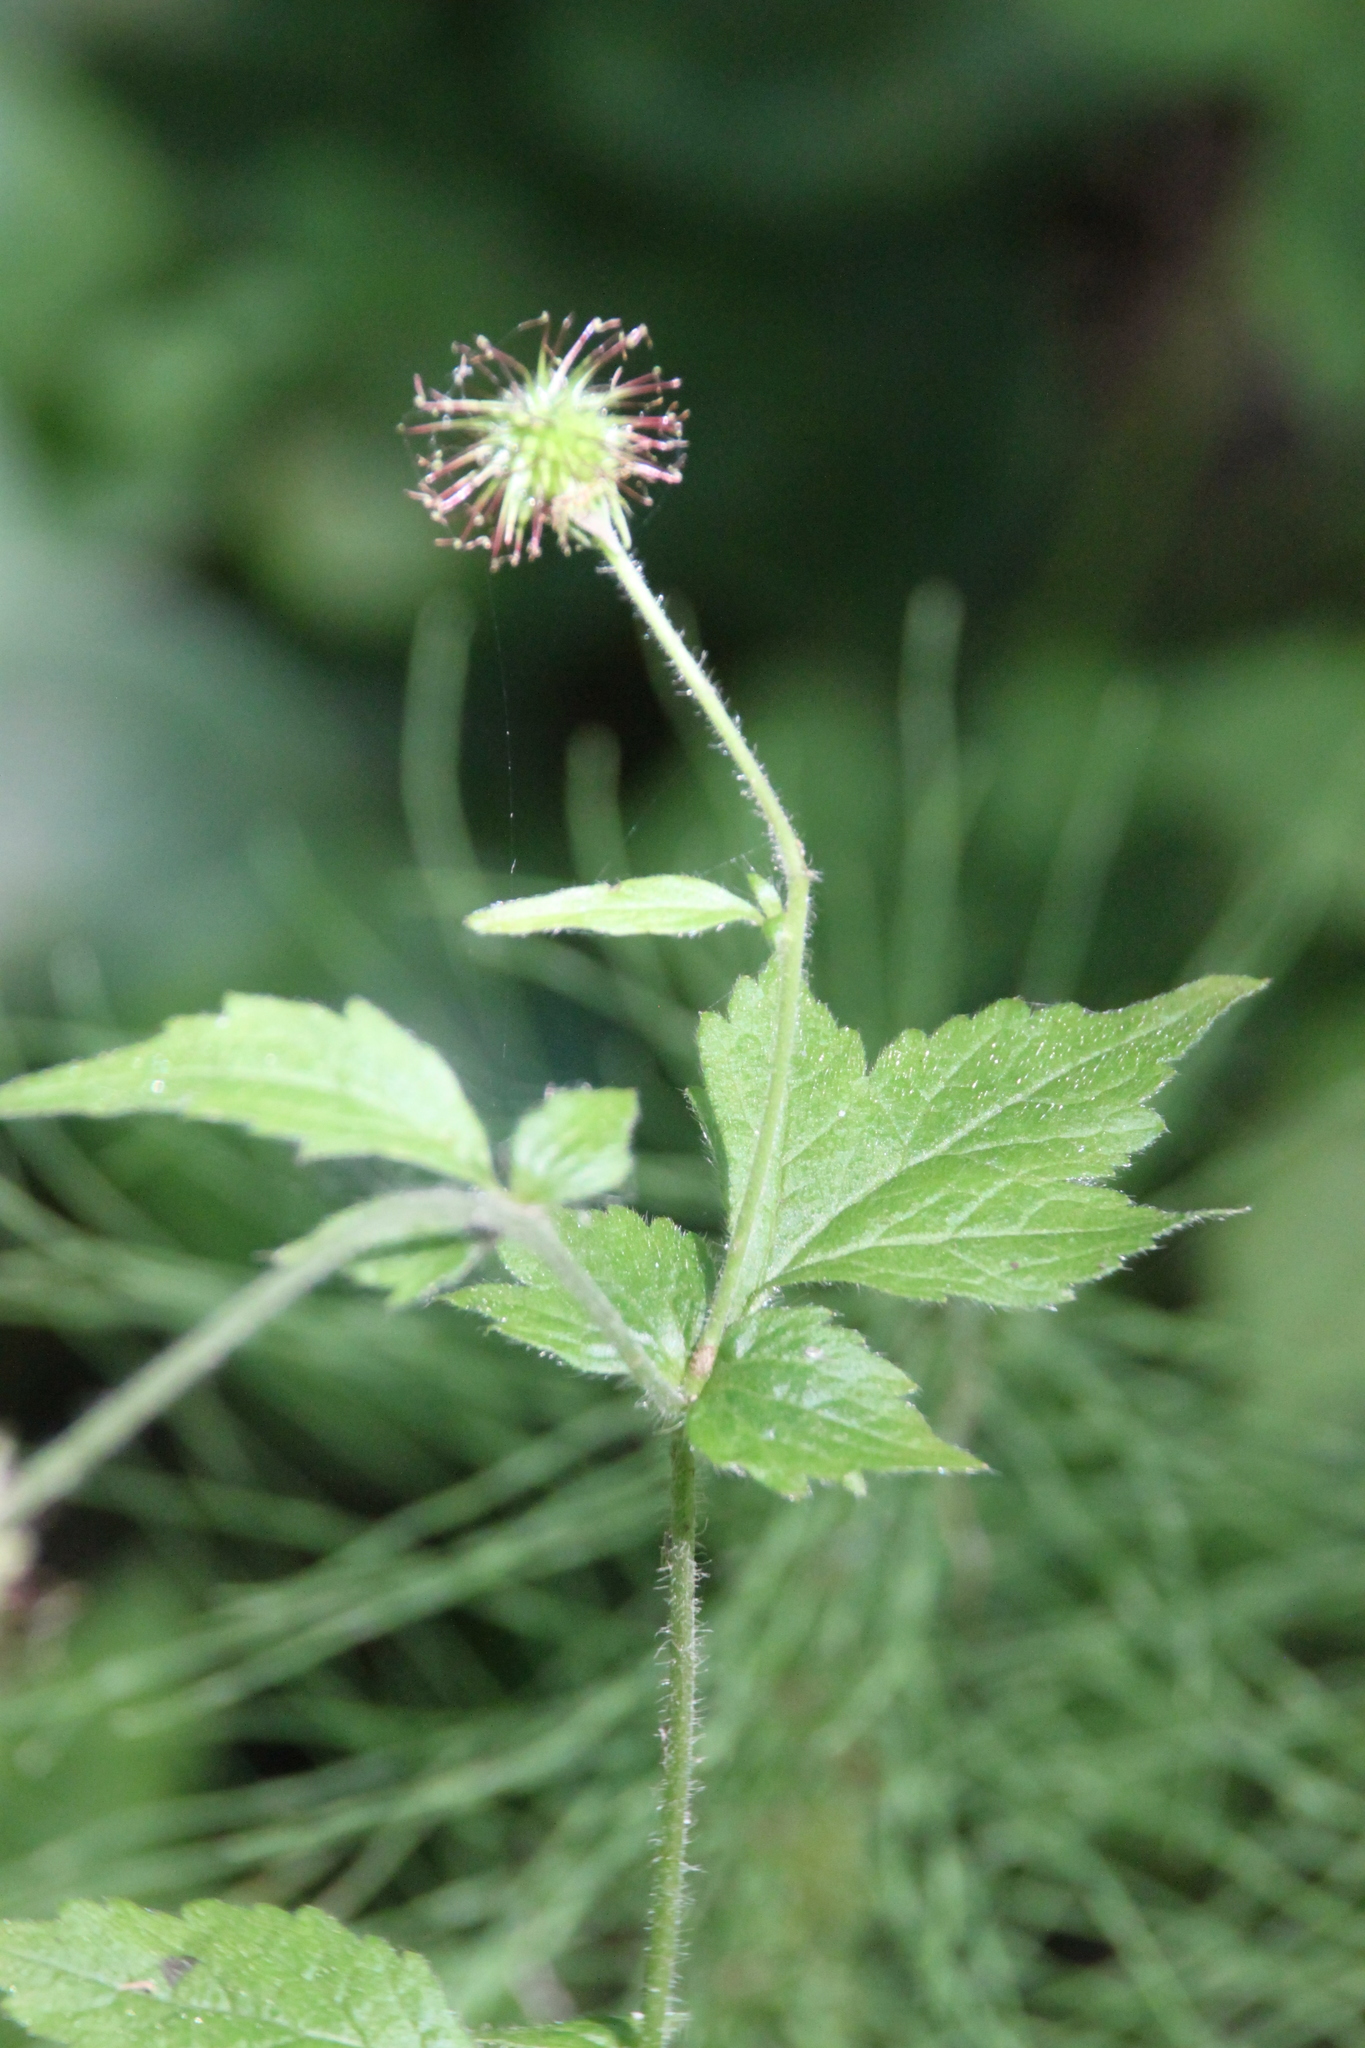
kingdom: Plantae
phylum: Tracheophyta
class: Magnoliopsida
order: Rosales
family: Rosaceae
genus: Geum
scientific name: Geum urbanum
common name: Wood avens
